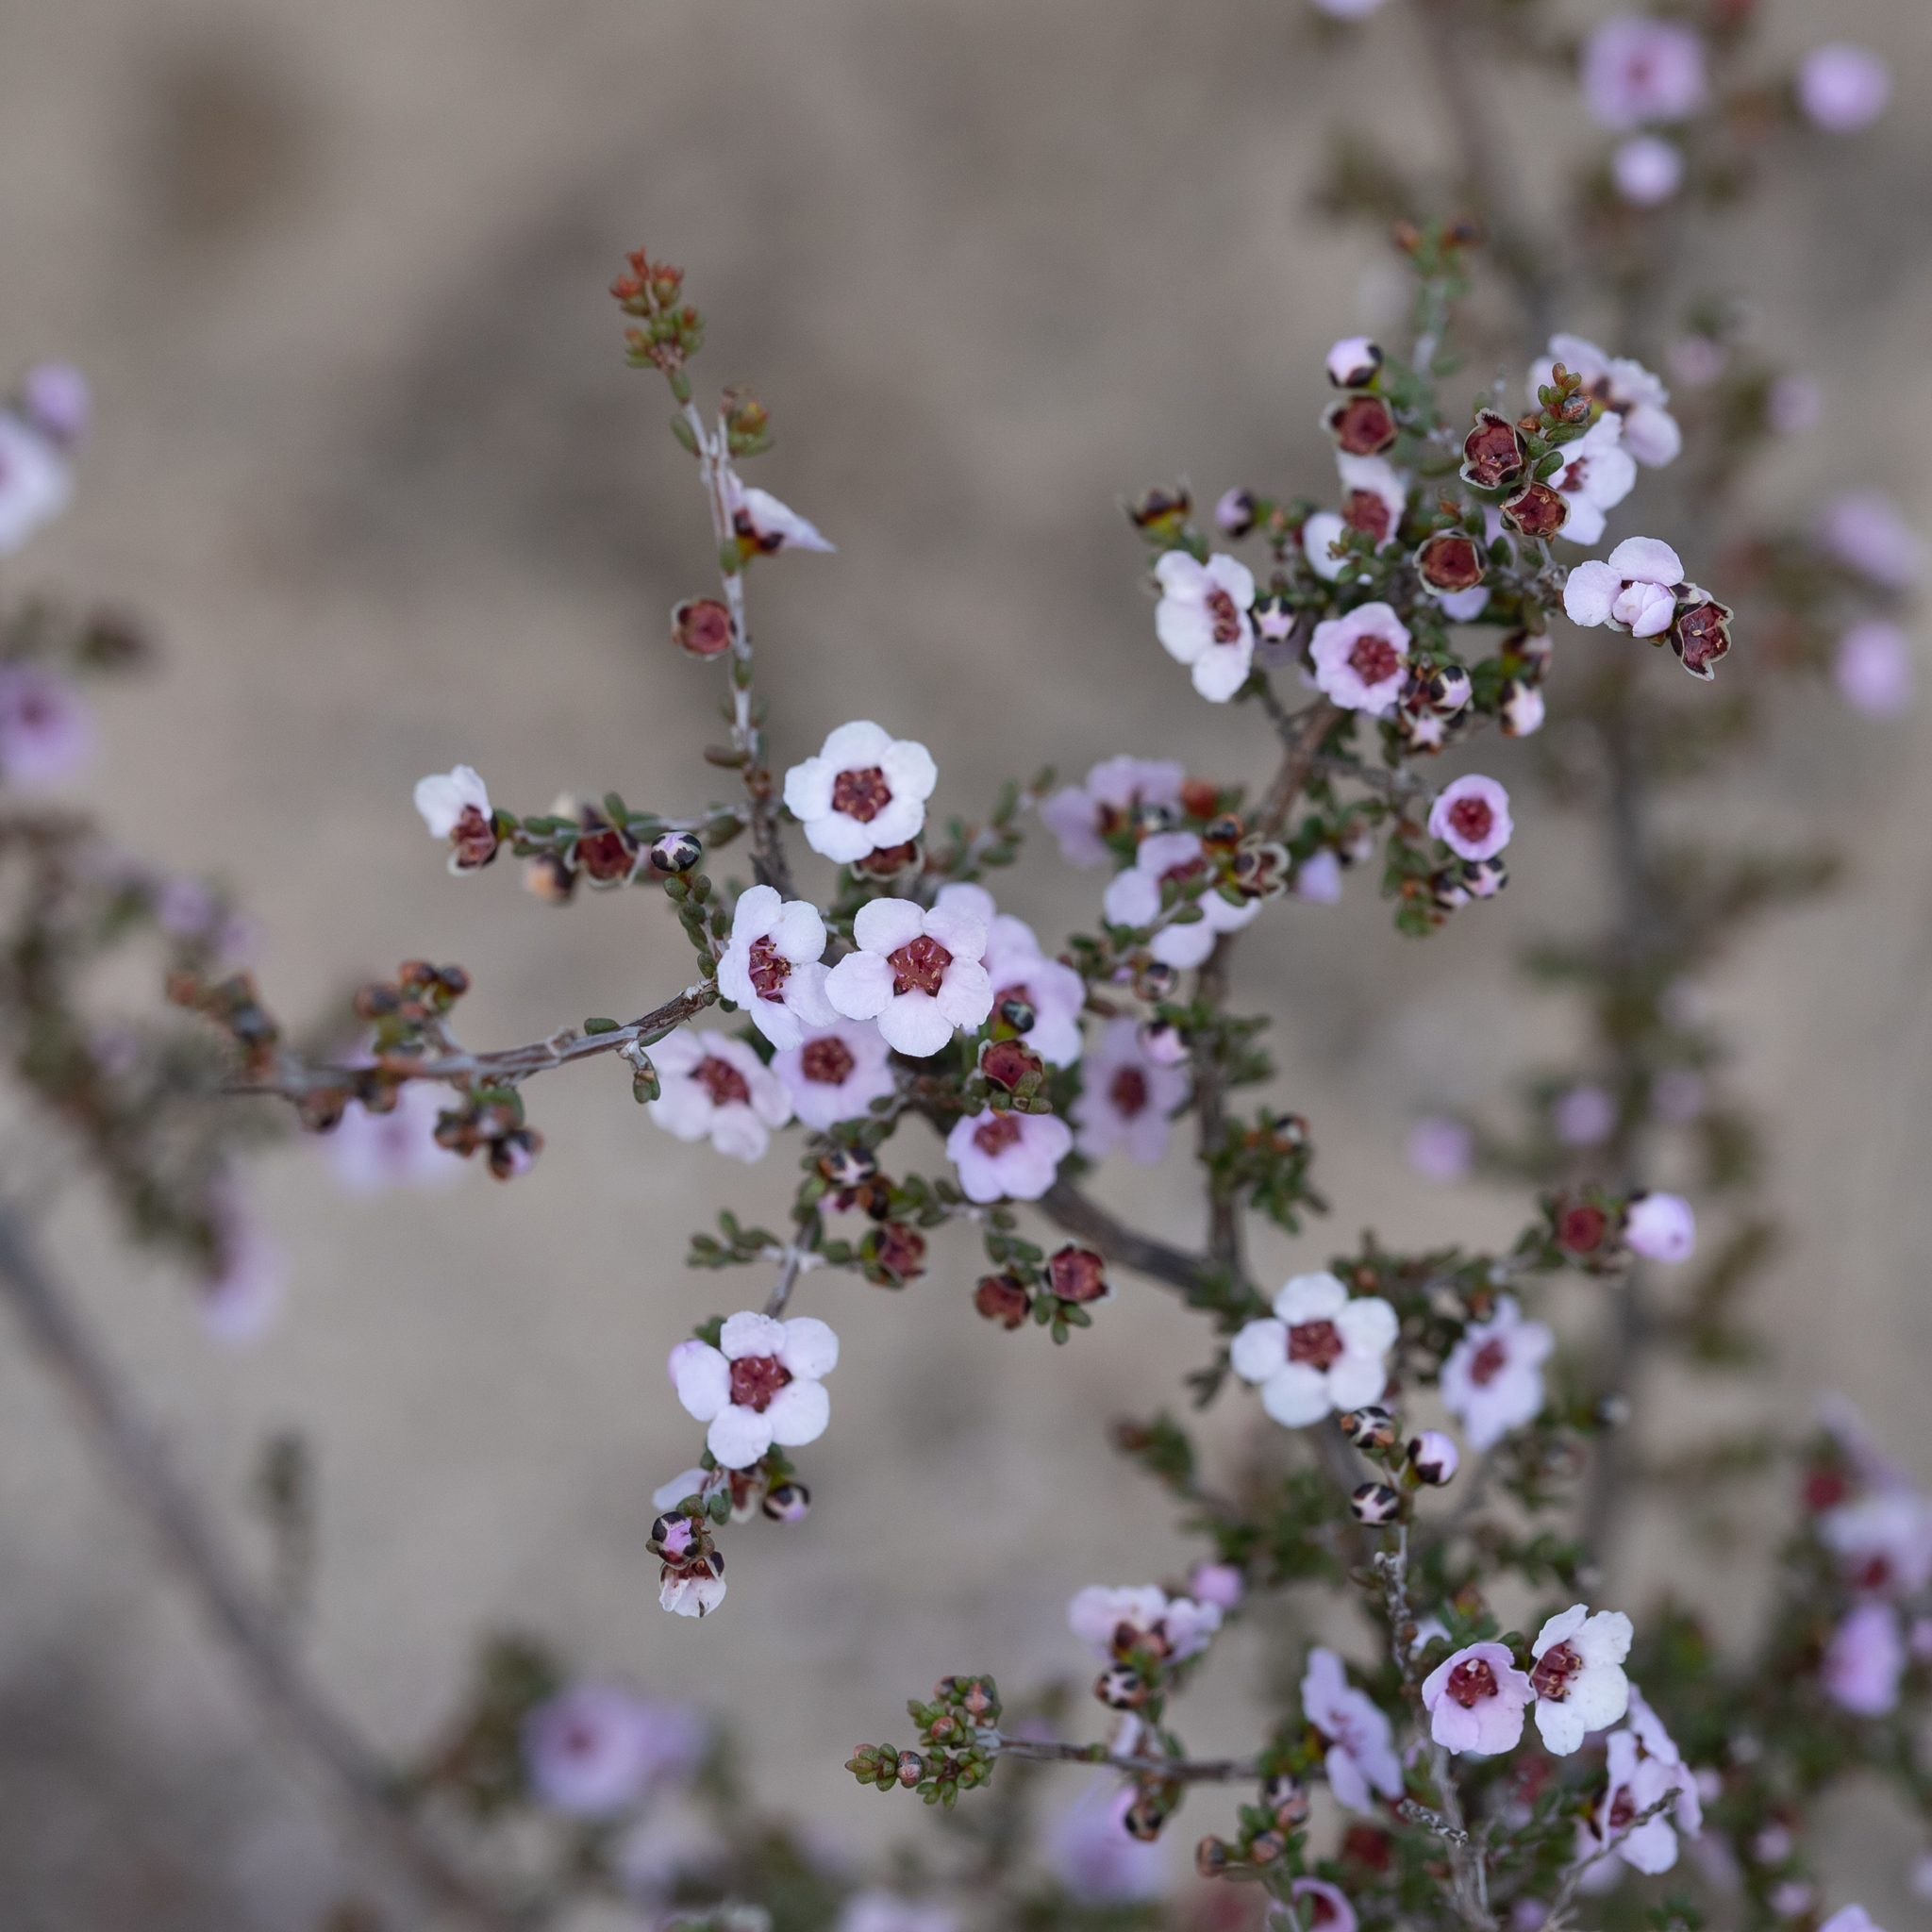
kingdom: Plantae
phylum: Tracheophyta
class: Magnoliopsida
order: Myrtales
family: Myrtaceae
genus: Rinzia
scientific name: Rinzia orientalis
